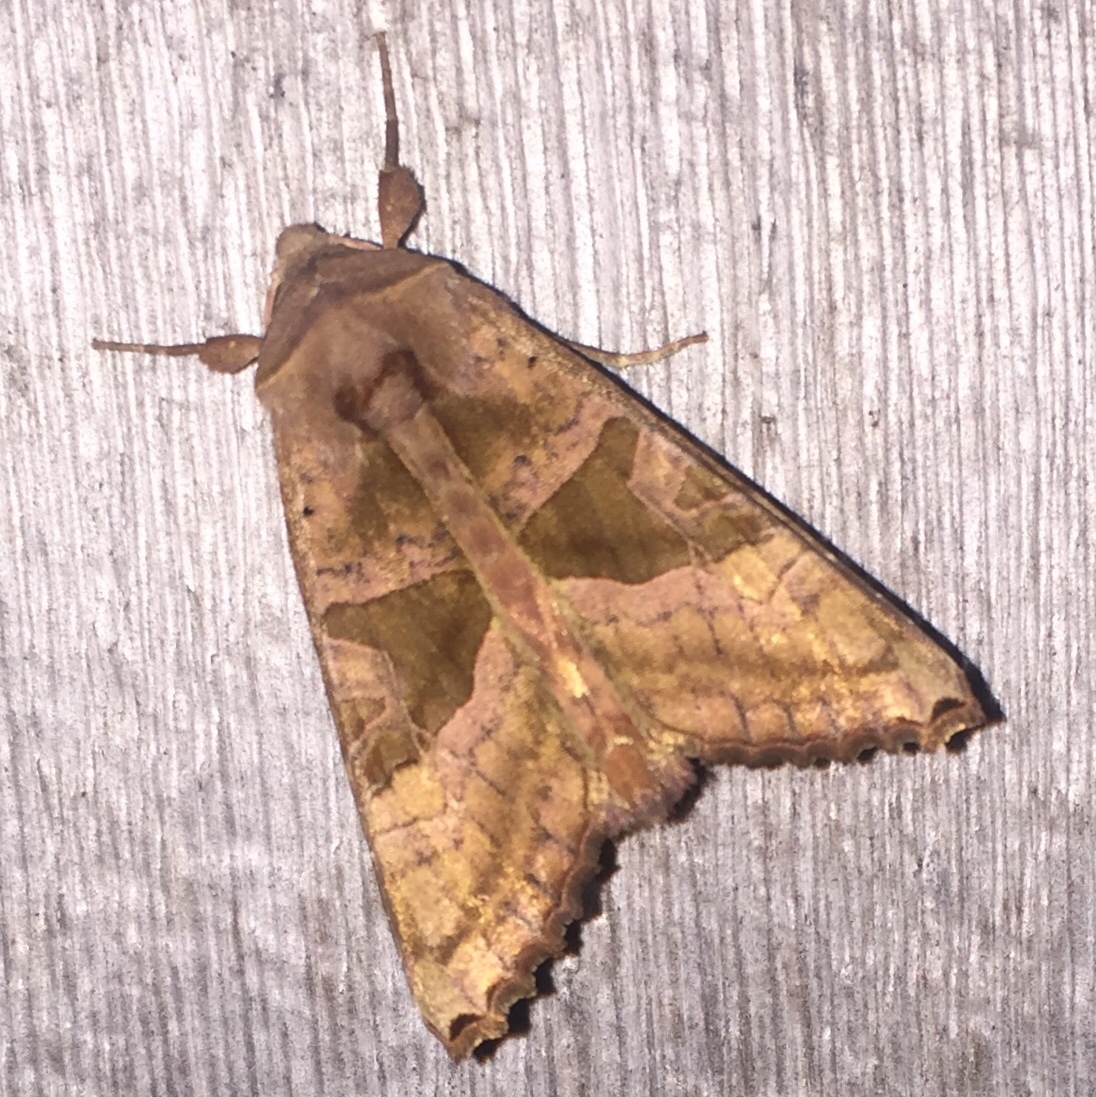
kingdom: Animalia
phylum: Arthropoda
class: Insecta
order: Lepidoptera
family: Noctuidae
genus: Phlogophora
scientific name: Phlogophora periculosa
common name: Brown angle shades
